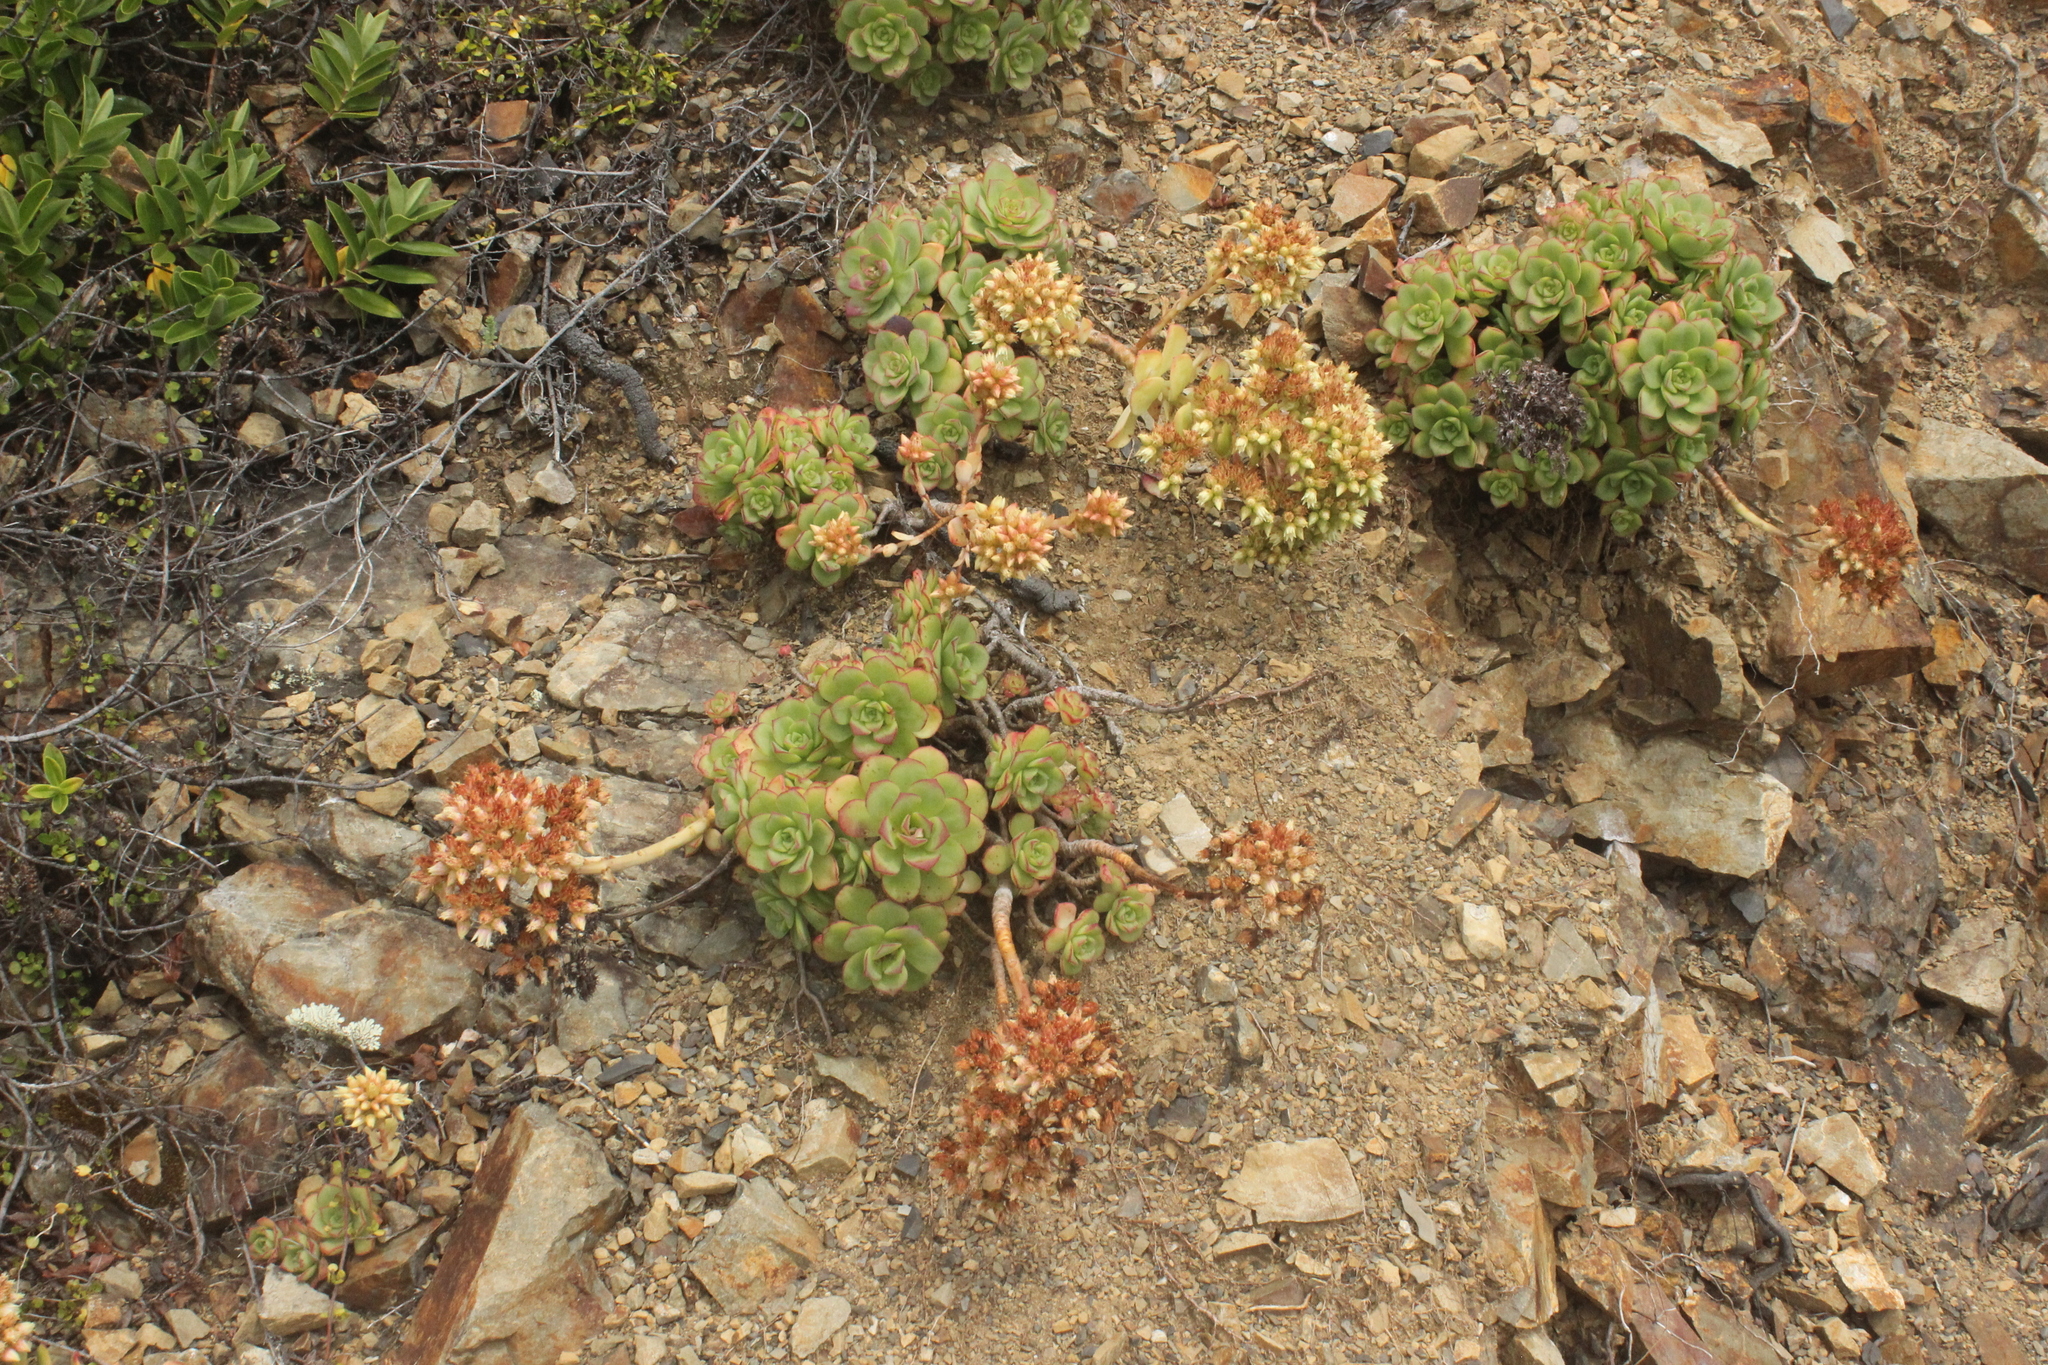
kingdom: Plantae
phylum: Tracheophyta
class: Magnoliopsida
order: Saxifragales
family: Crassulaceae
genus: Aeonium
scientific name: Aeonium haworthii
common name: Haworth's aeonium
